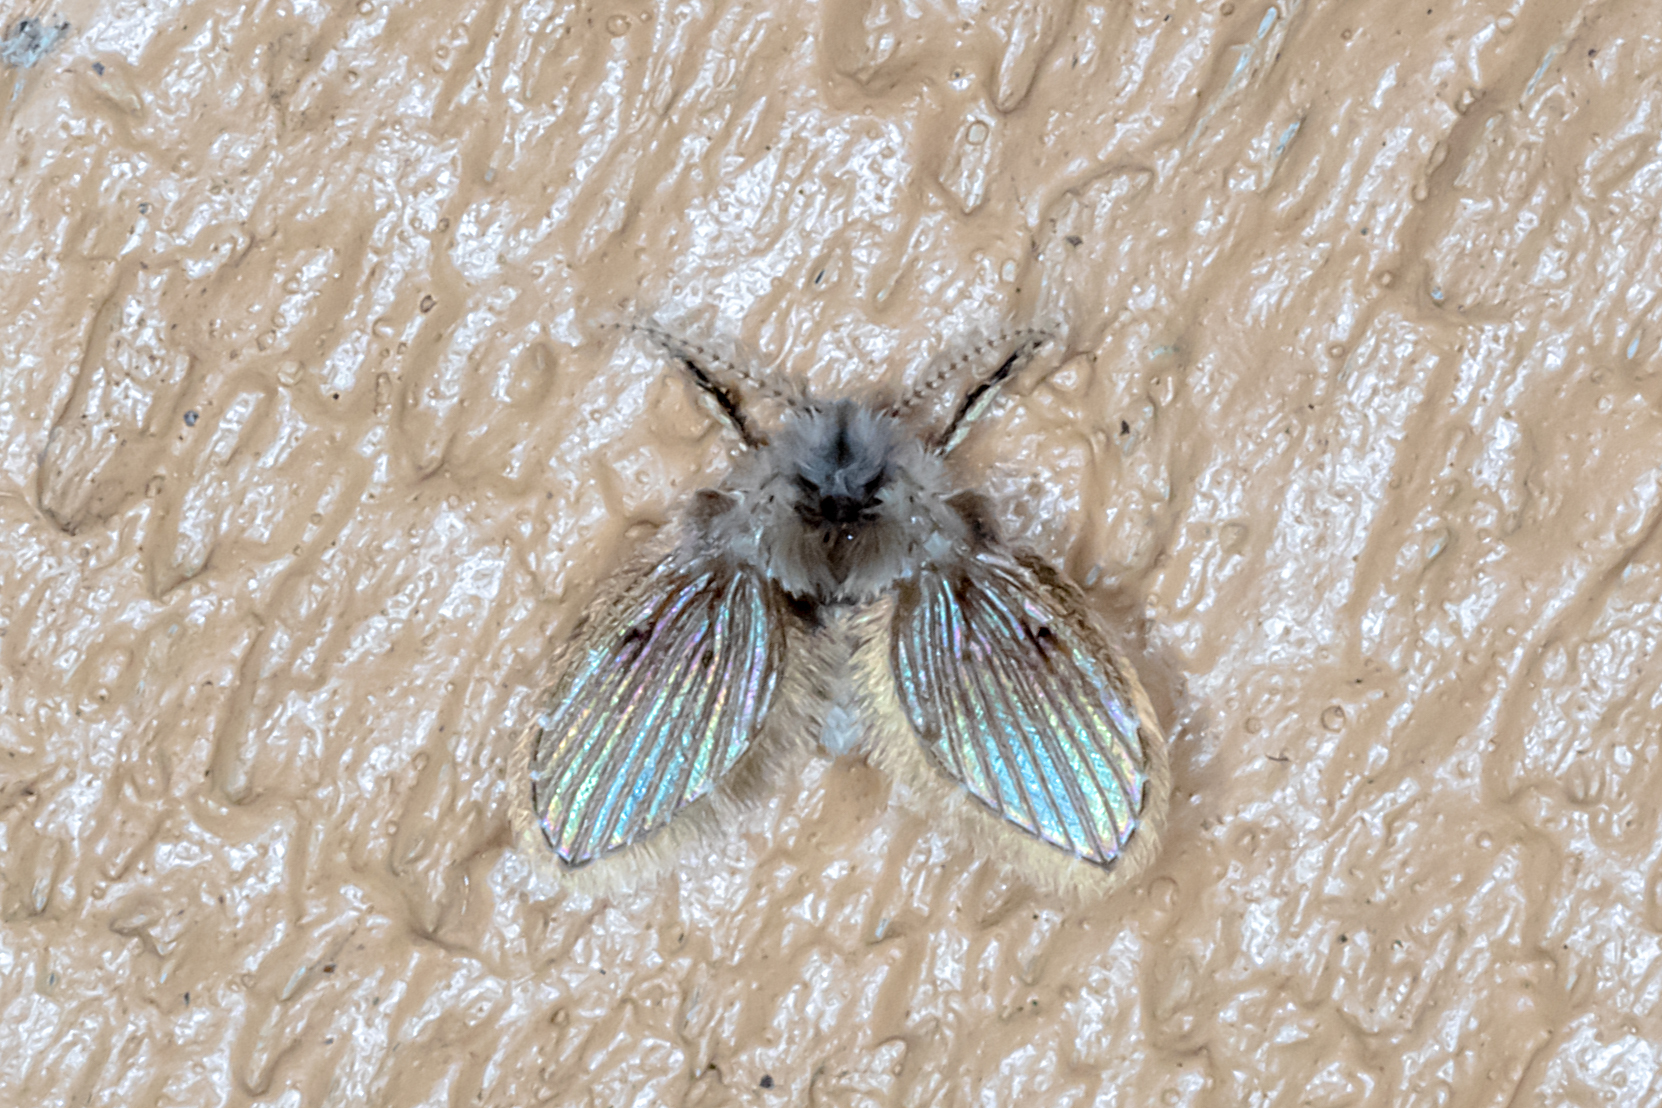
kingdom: Animalia
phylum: Arthropoda
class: Insecta
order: Diptera
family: Psychodidae
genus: Clogmia
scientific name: Clogmia albipunctatus
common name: White-spotted moth fly
